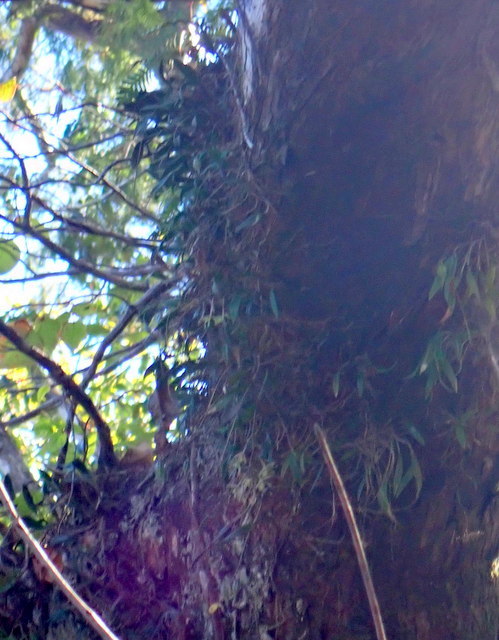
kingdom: Plantae
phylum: Tracheophyta
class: Liliopsida
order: Asparagales
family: Orchidaceae
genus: Epidendrum
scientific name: Epidendrum conopseum
